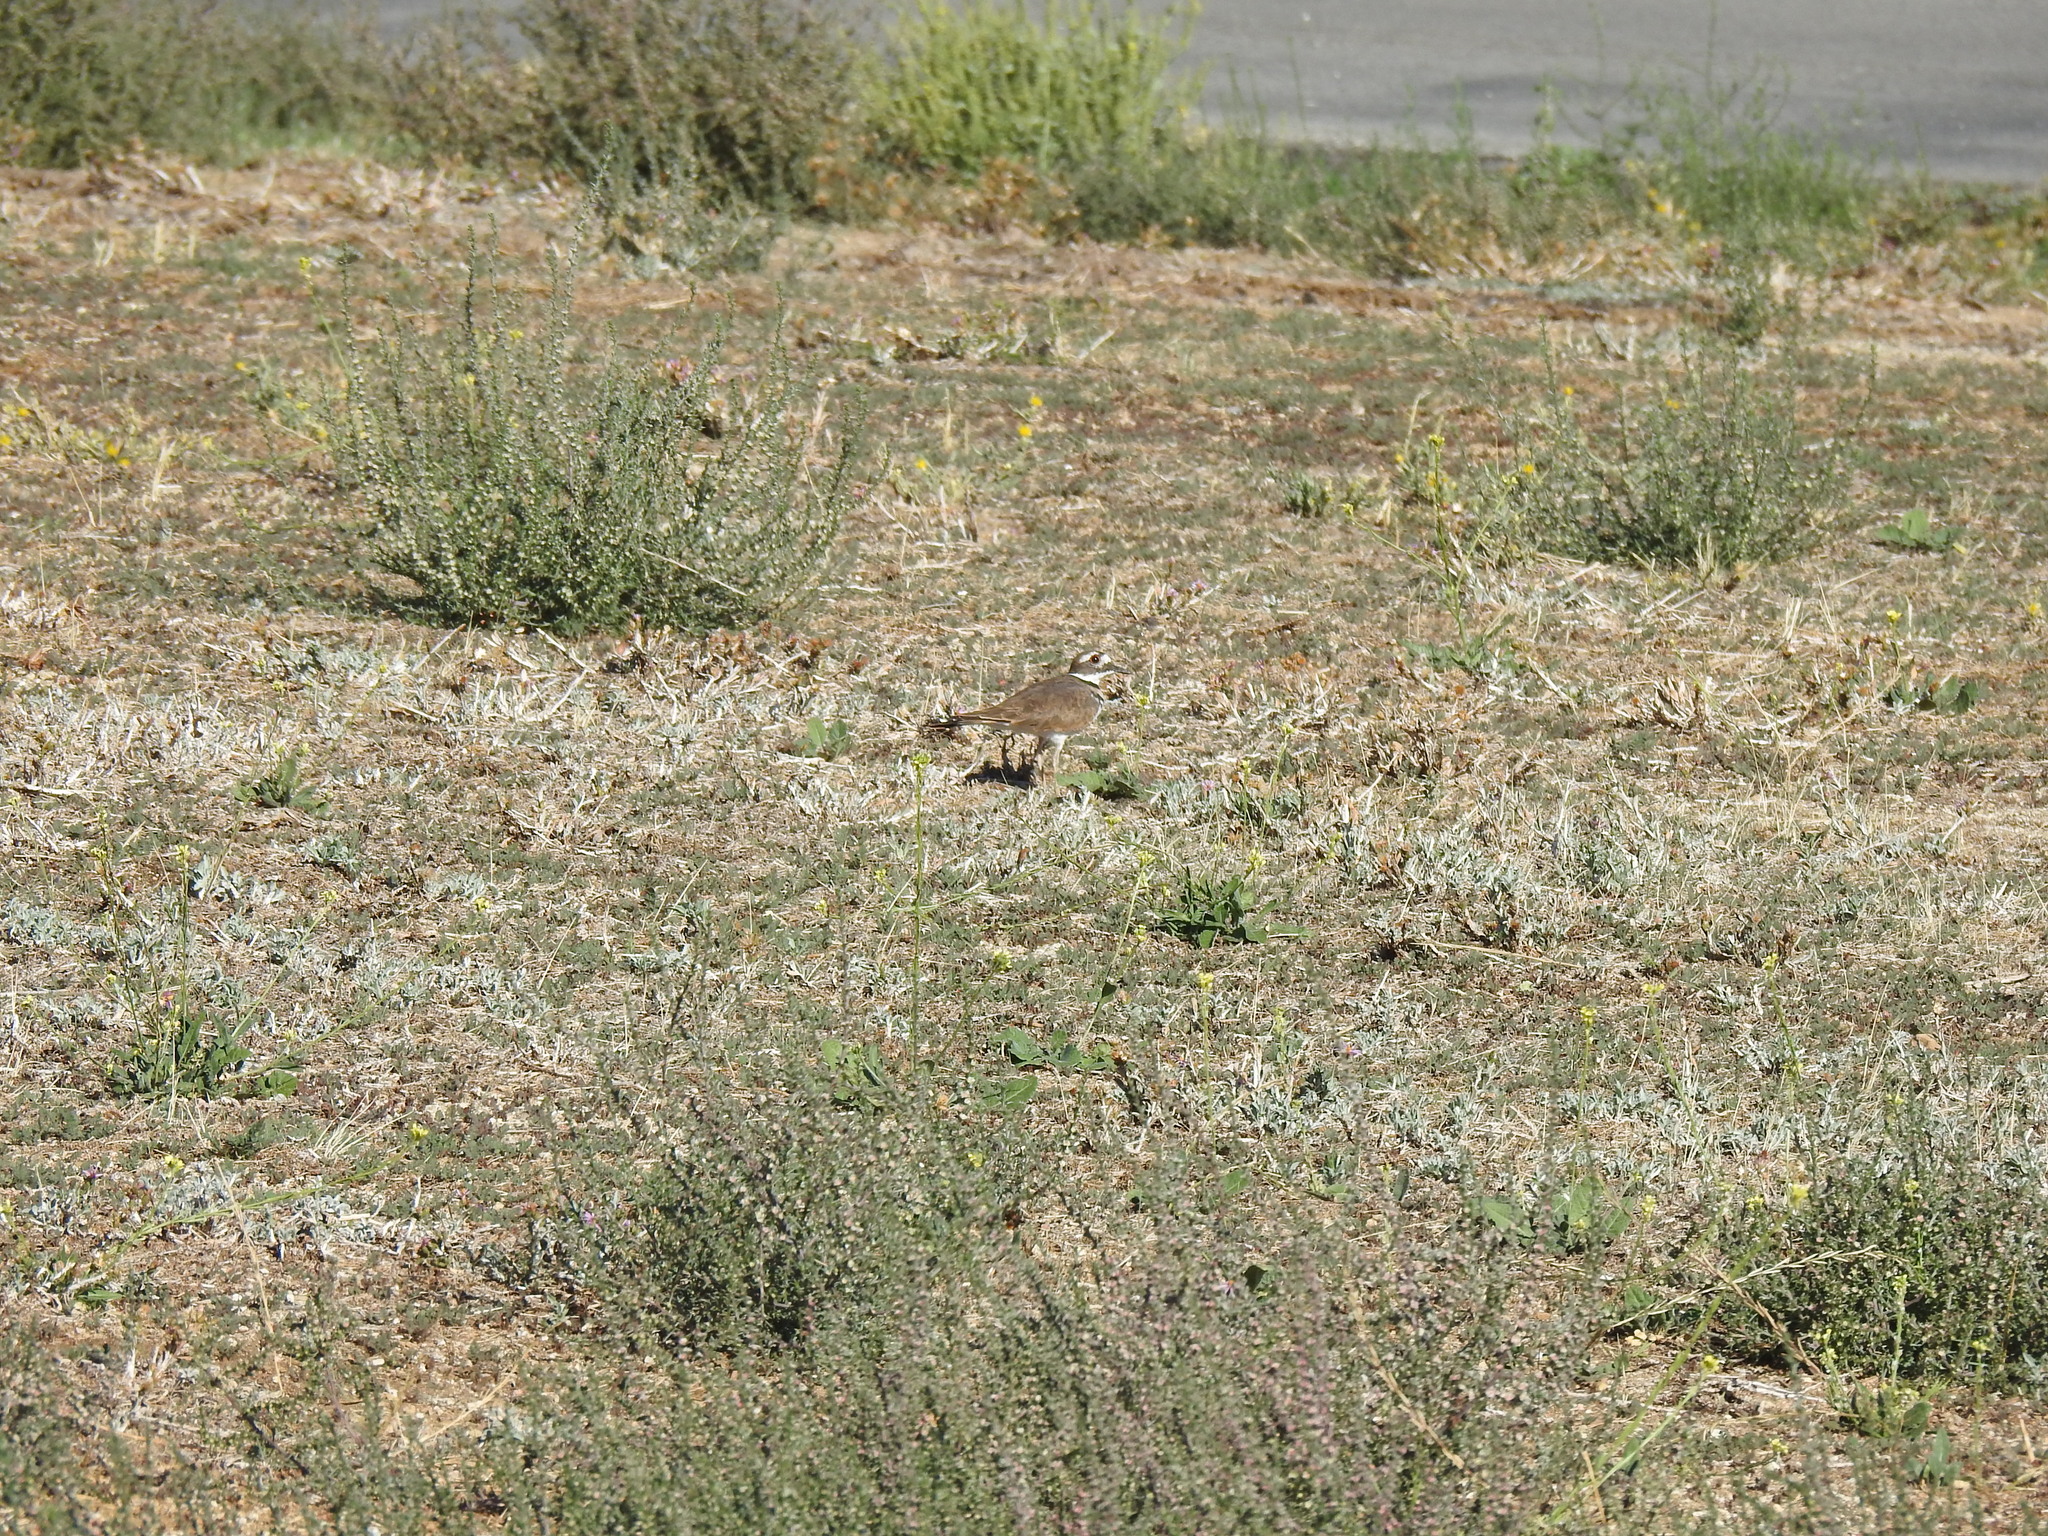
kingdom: Animalia
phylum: Chordata
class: Aves
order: Charadriiformes
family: Charadriidae
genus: Charadrius
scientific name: Charadrius vociferus
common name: Killdeer
